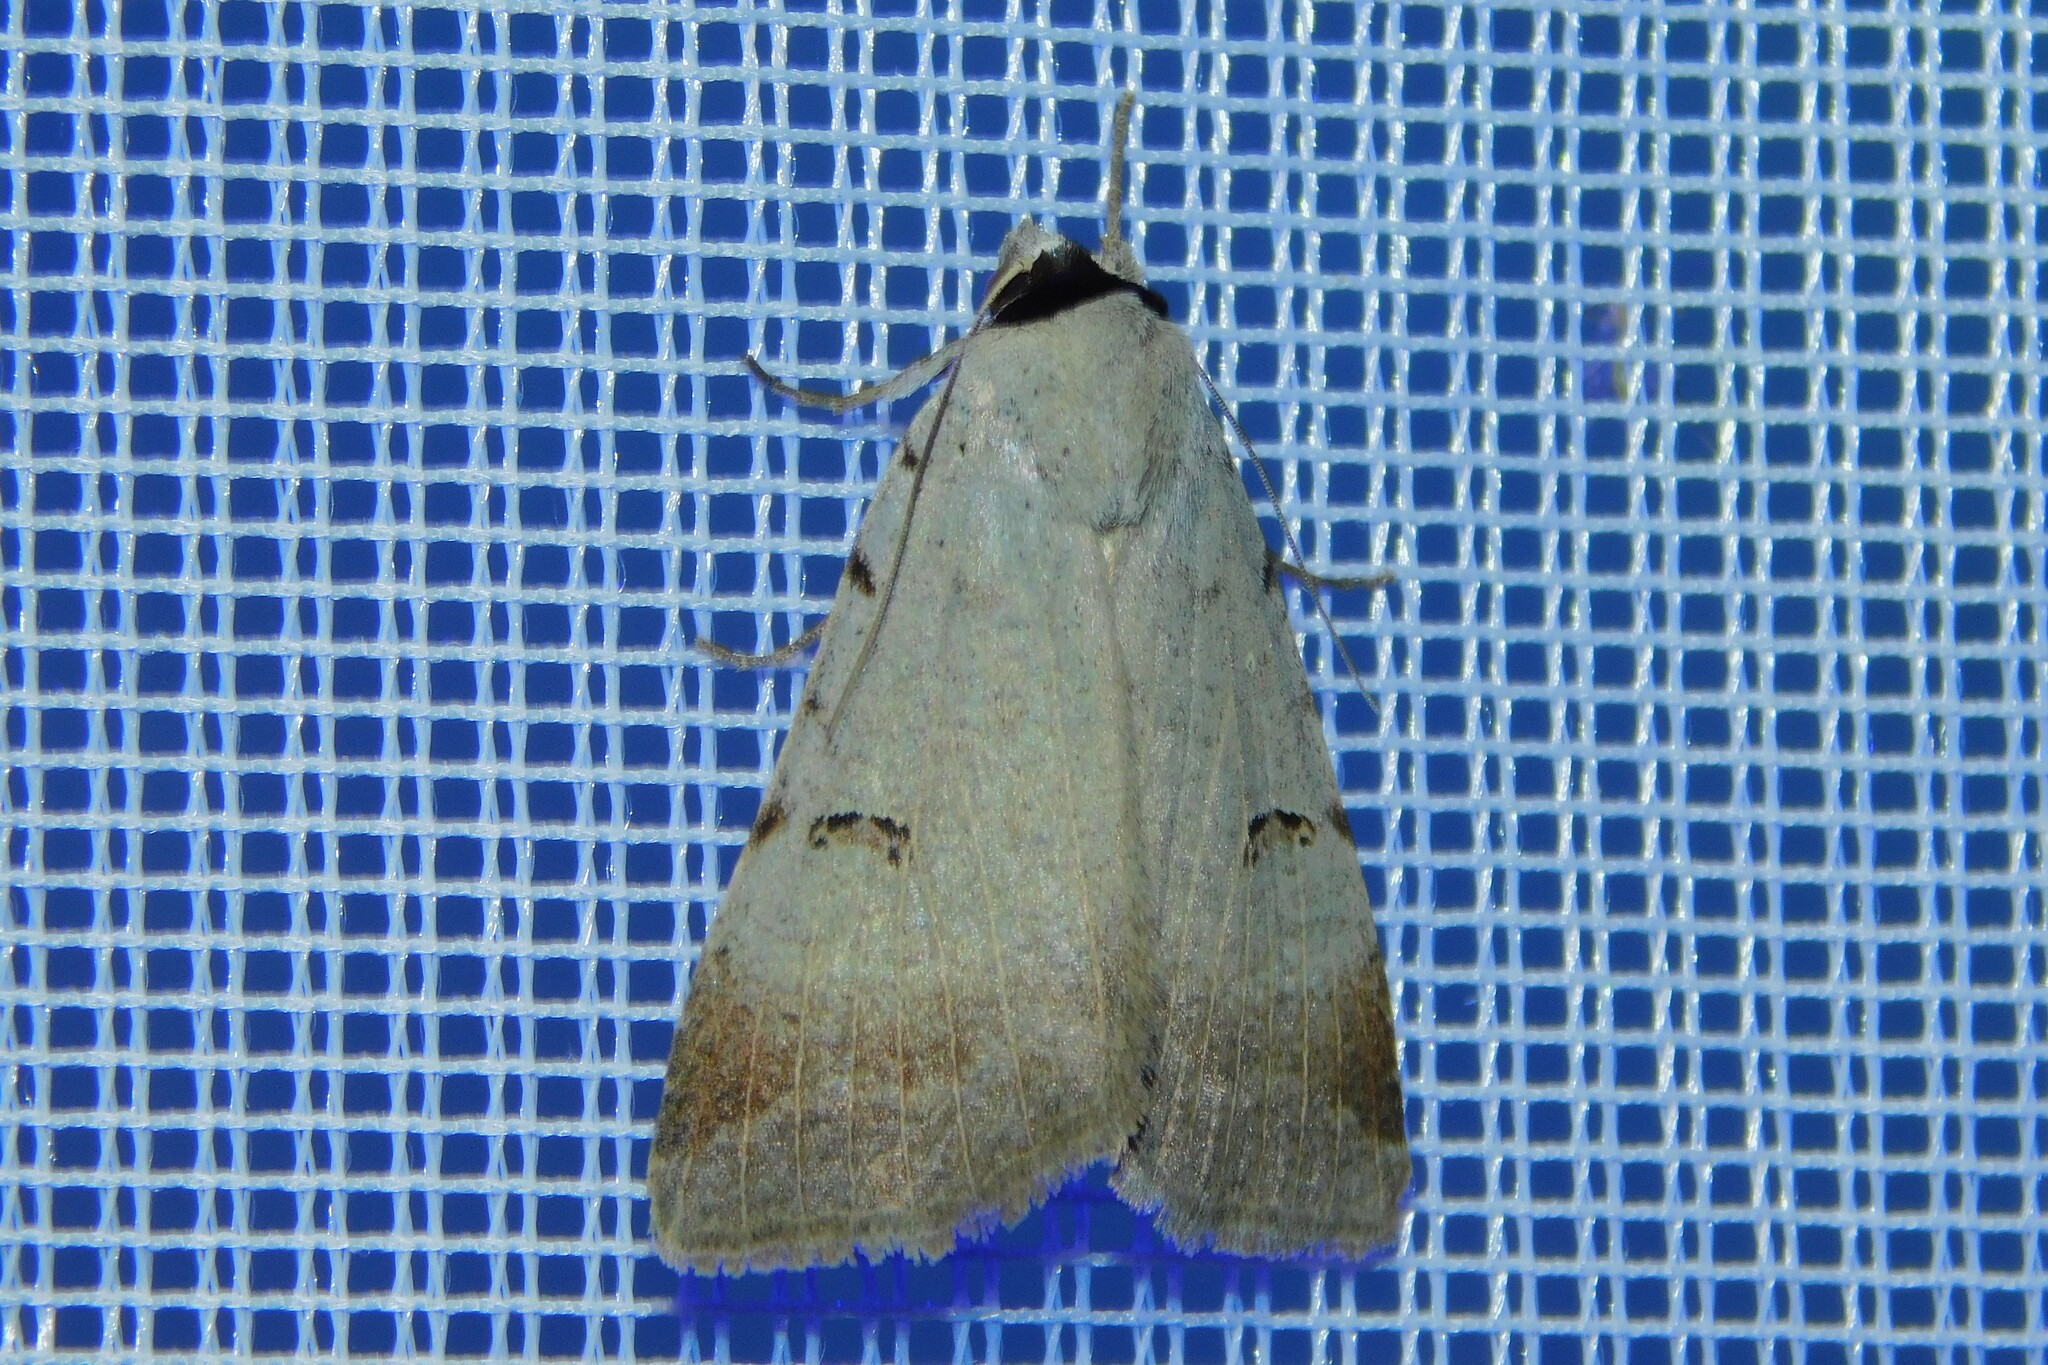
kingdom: Animalia
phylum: Arthropoda
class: Insecta
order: Lepidoptera
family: Erebidae
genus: Lygephila
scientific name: Lygephila craccae
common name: Scarce blackneck
